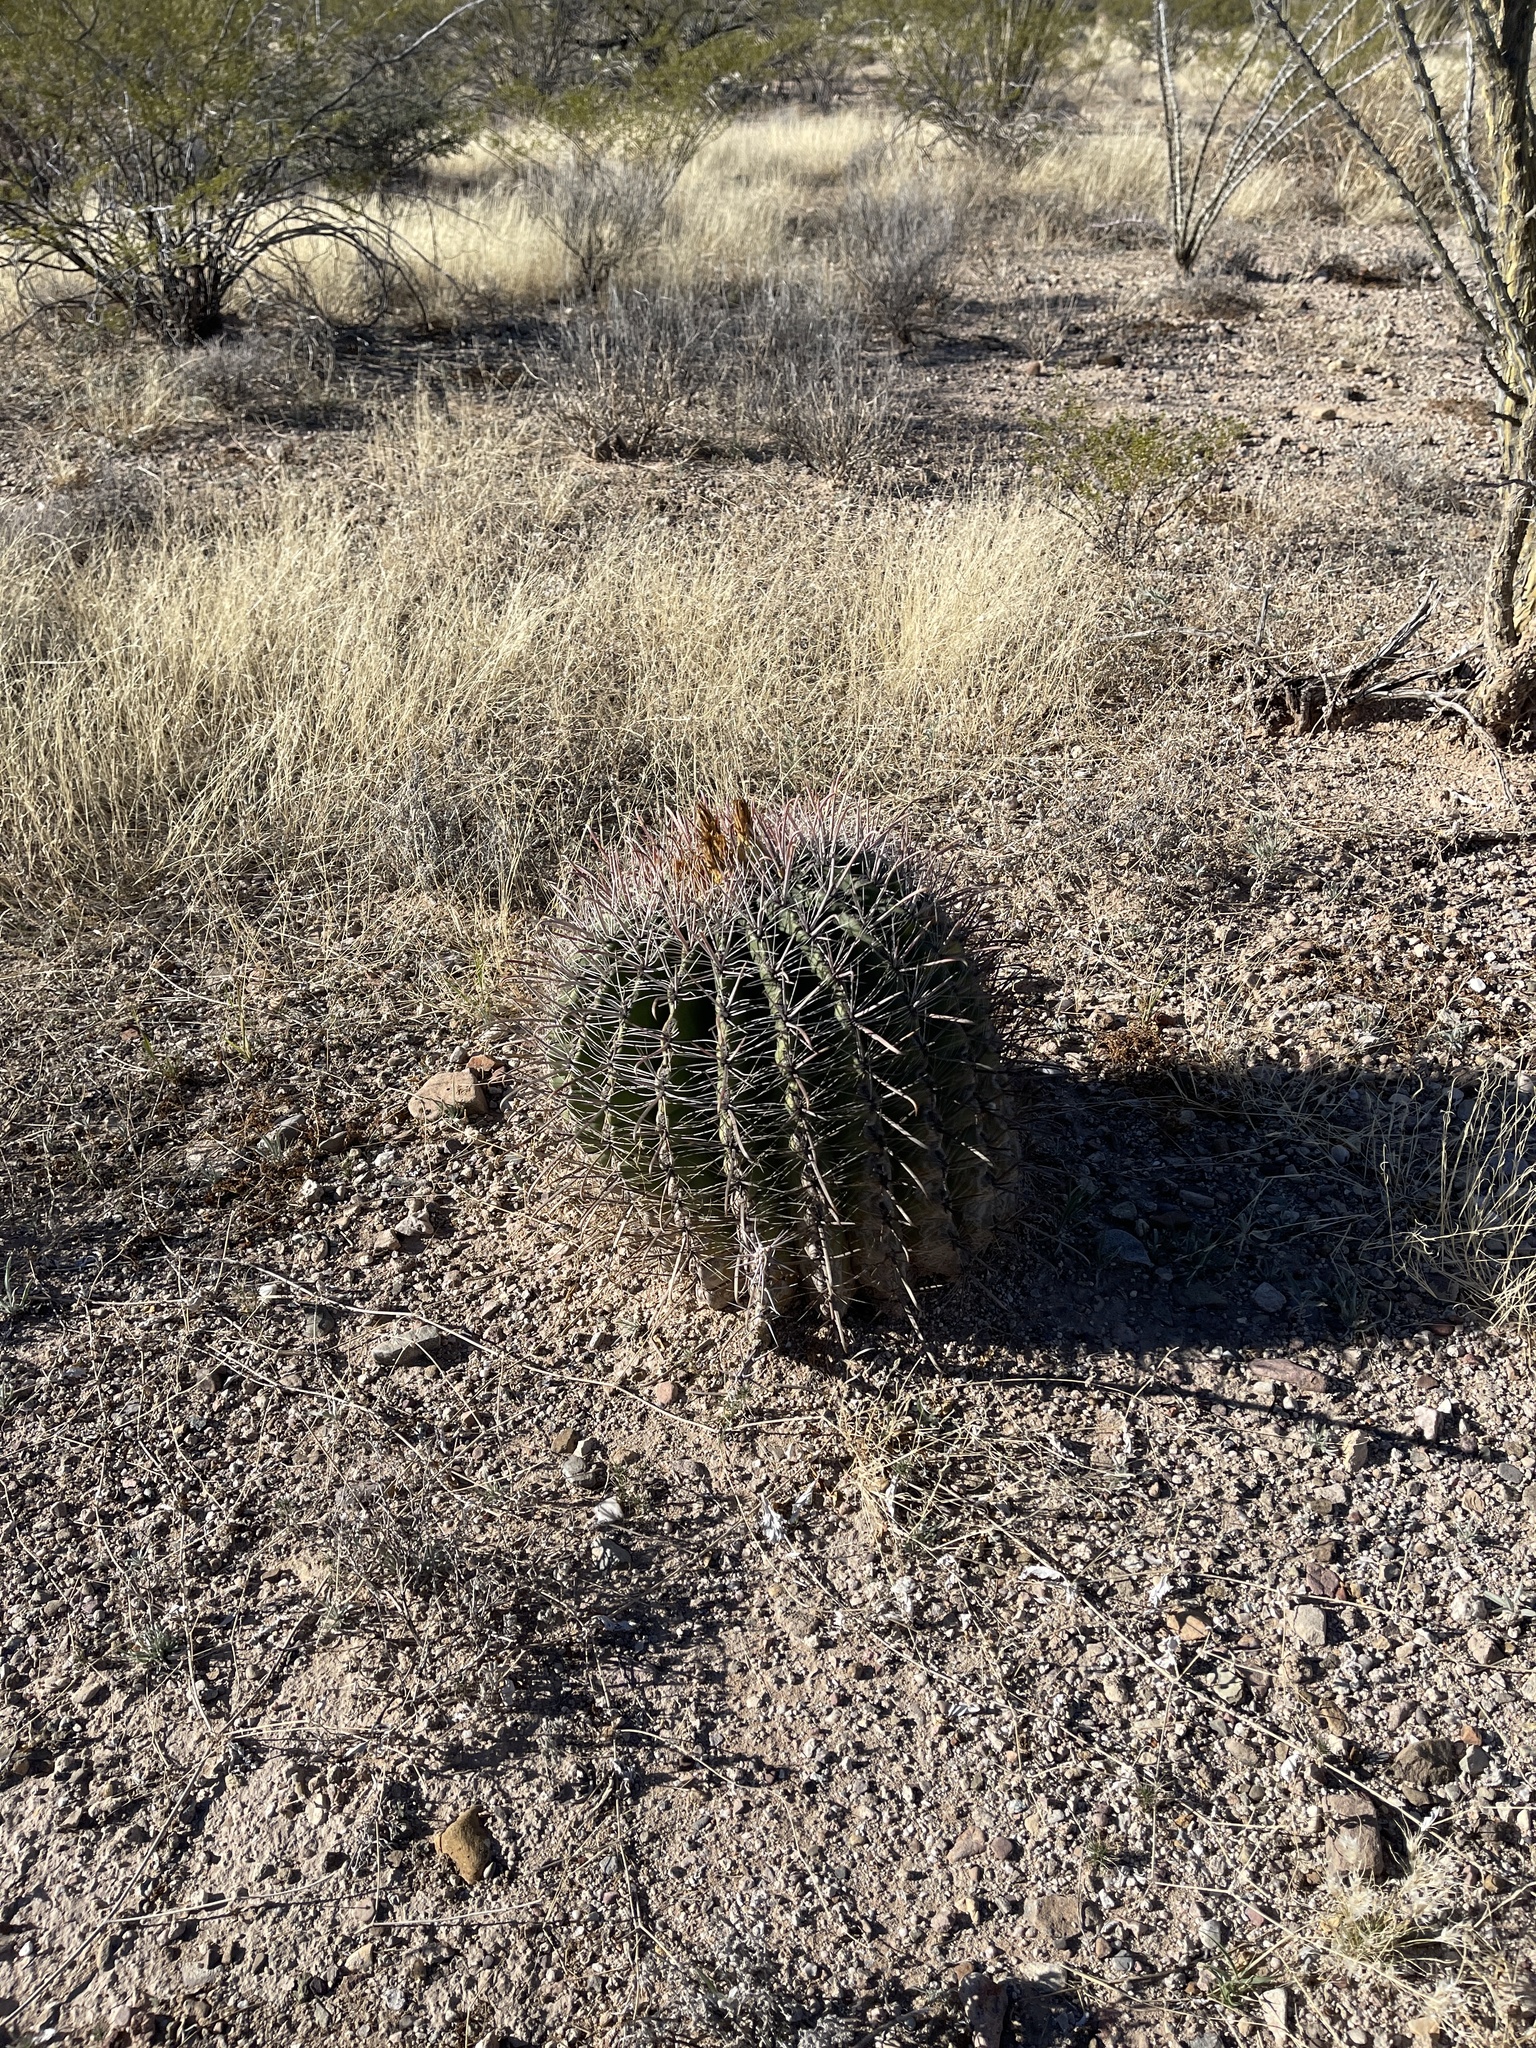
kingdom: Plantae
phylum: Tracheophyta
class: Magnoliopsida
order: Caryophyllales
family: Cactaceae
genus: Ferocactus
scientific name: Ferocactus wislizeni
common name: Candy barrel cactus
